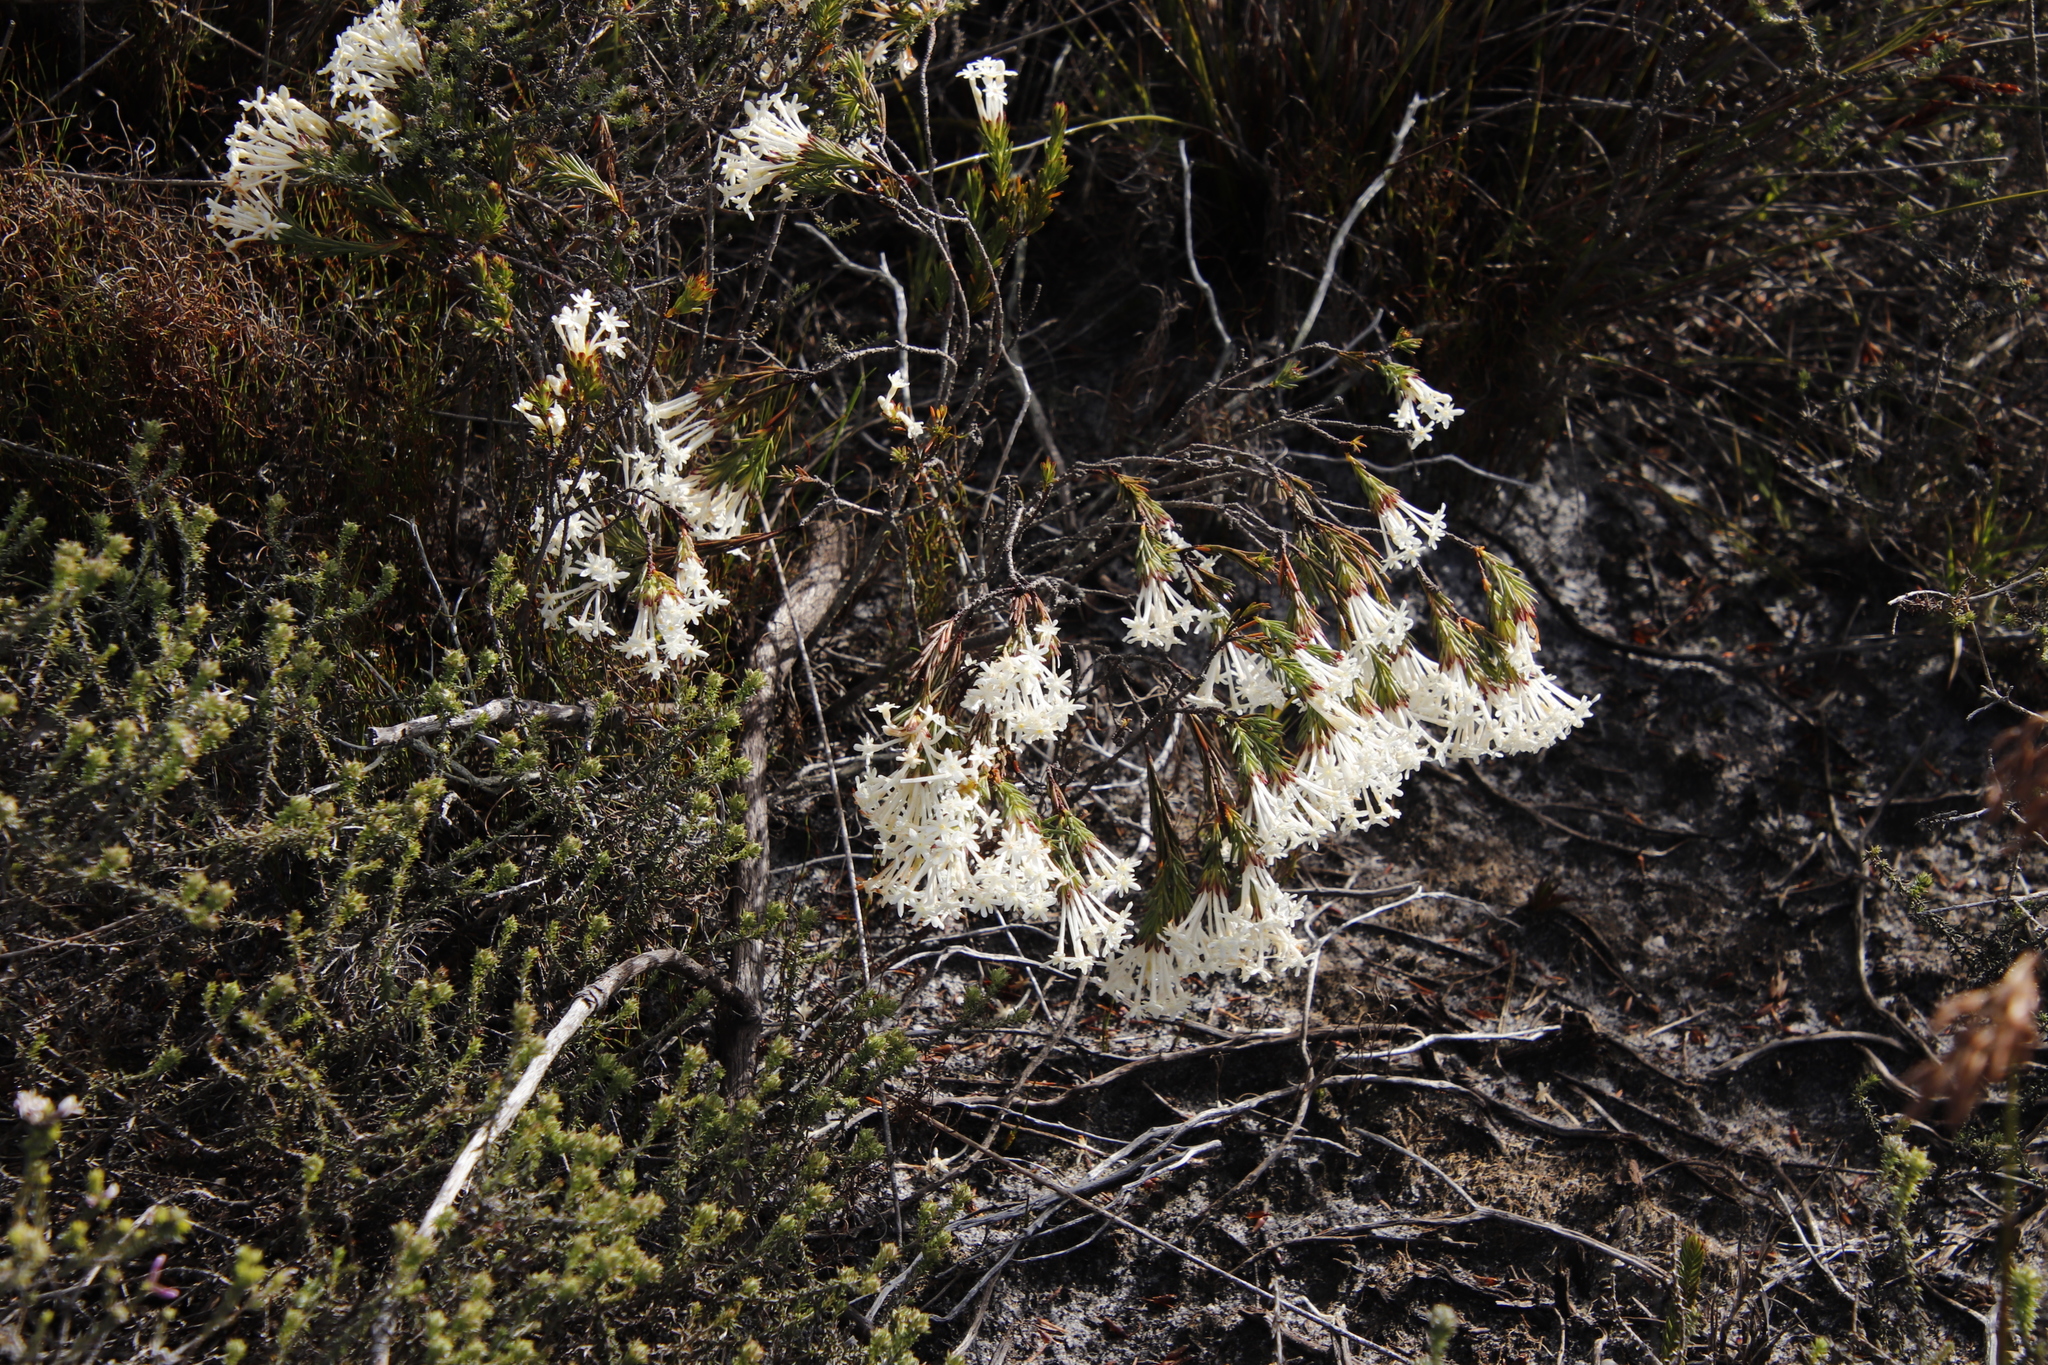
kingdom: Plantae
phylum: Tracheophyta
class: Magnoliopsida
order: Malvales
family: Thymelaeaceae
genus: Gnidia
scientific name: Gnidia pinifolia
